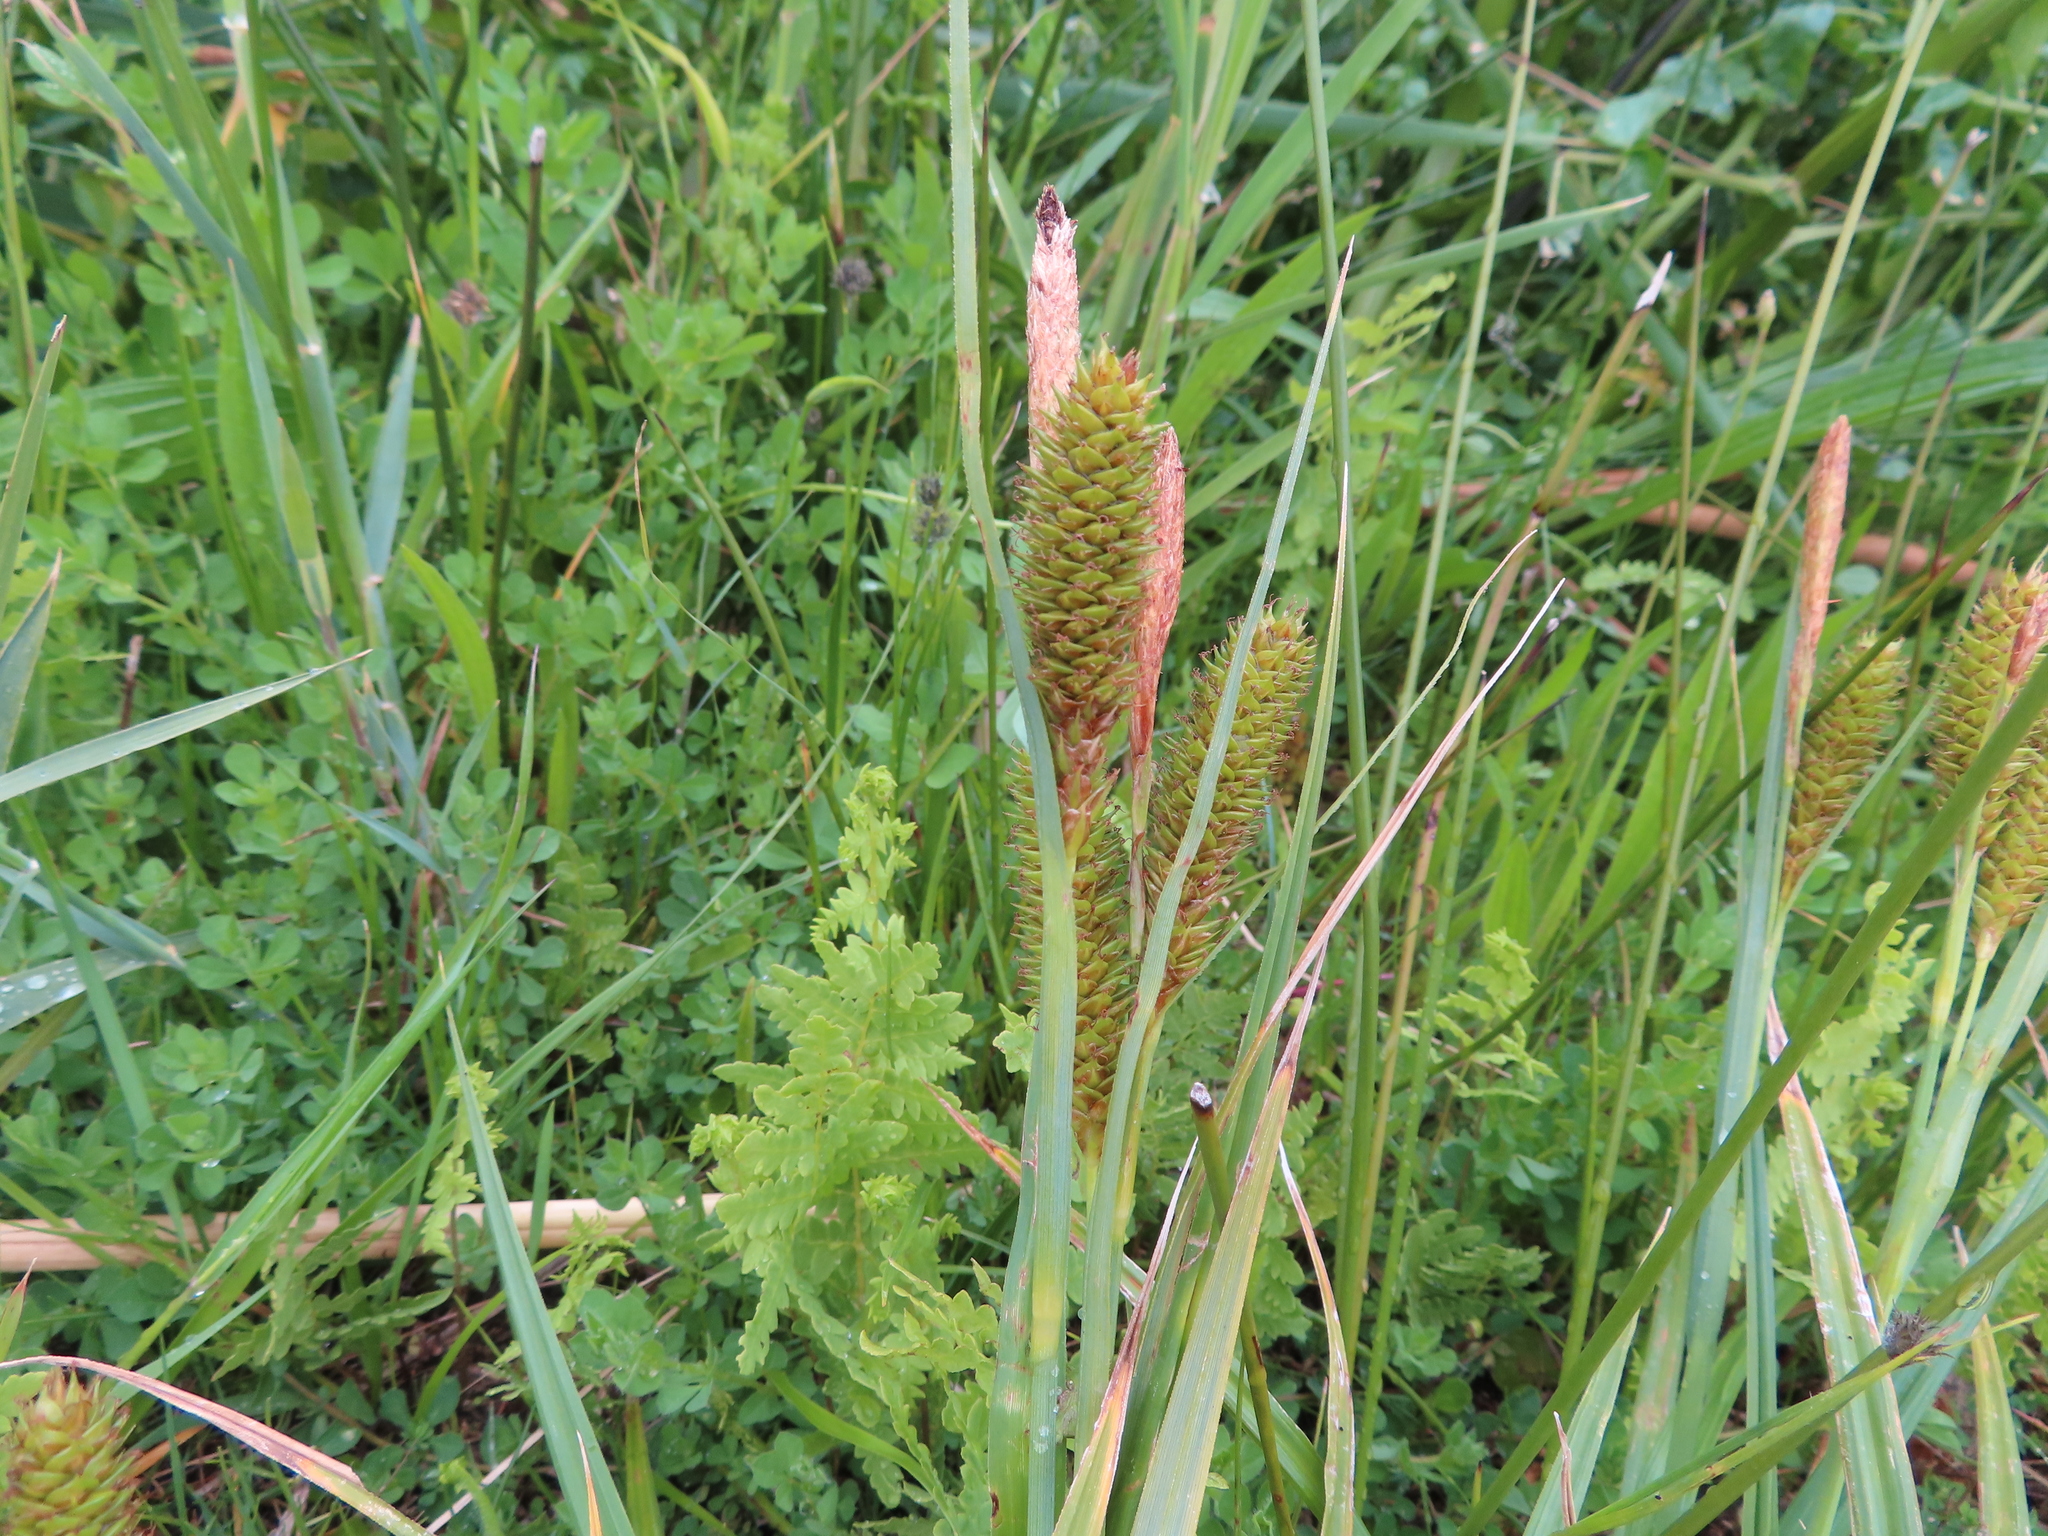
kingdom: Plantae
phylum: Tracheophyta
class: Liliopsida
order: Poales
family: Cyperaceae
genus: Carex
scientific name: Carex clavata
